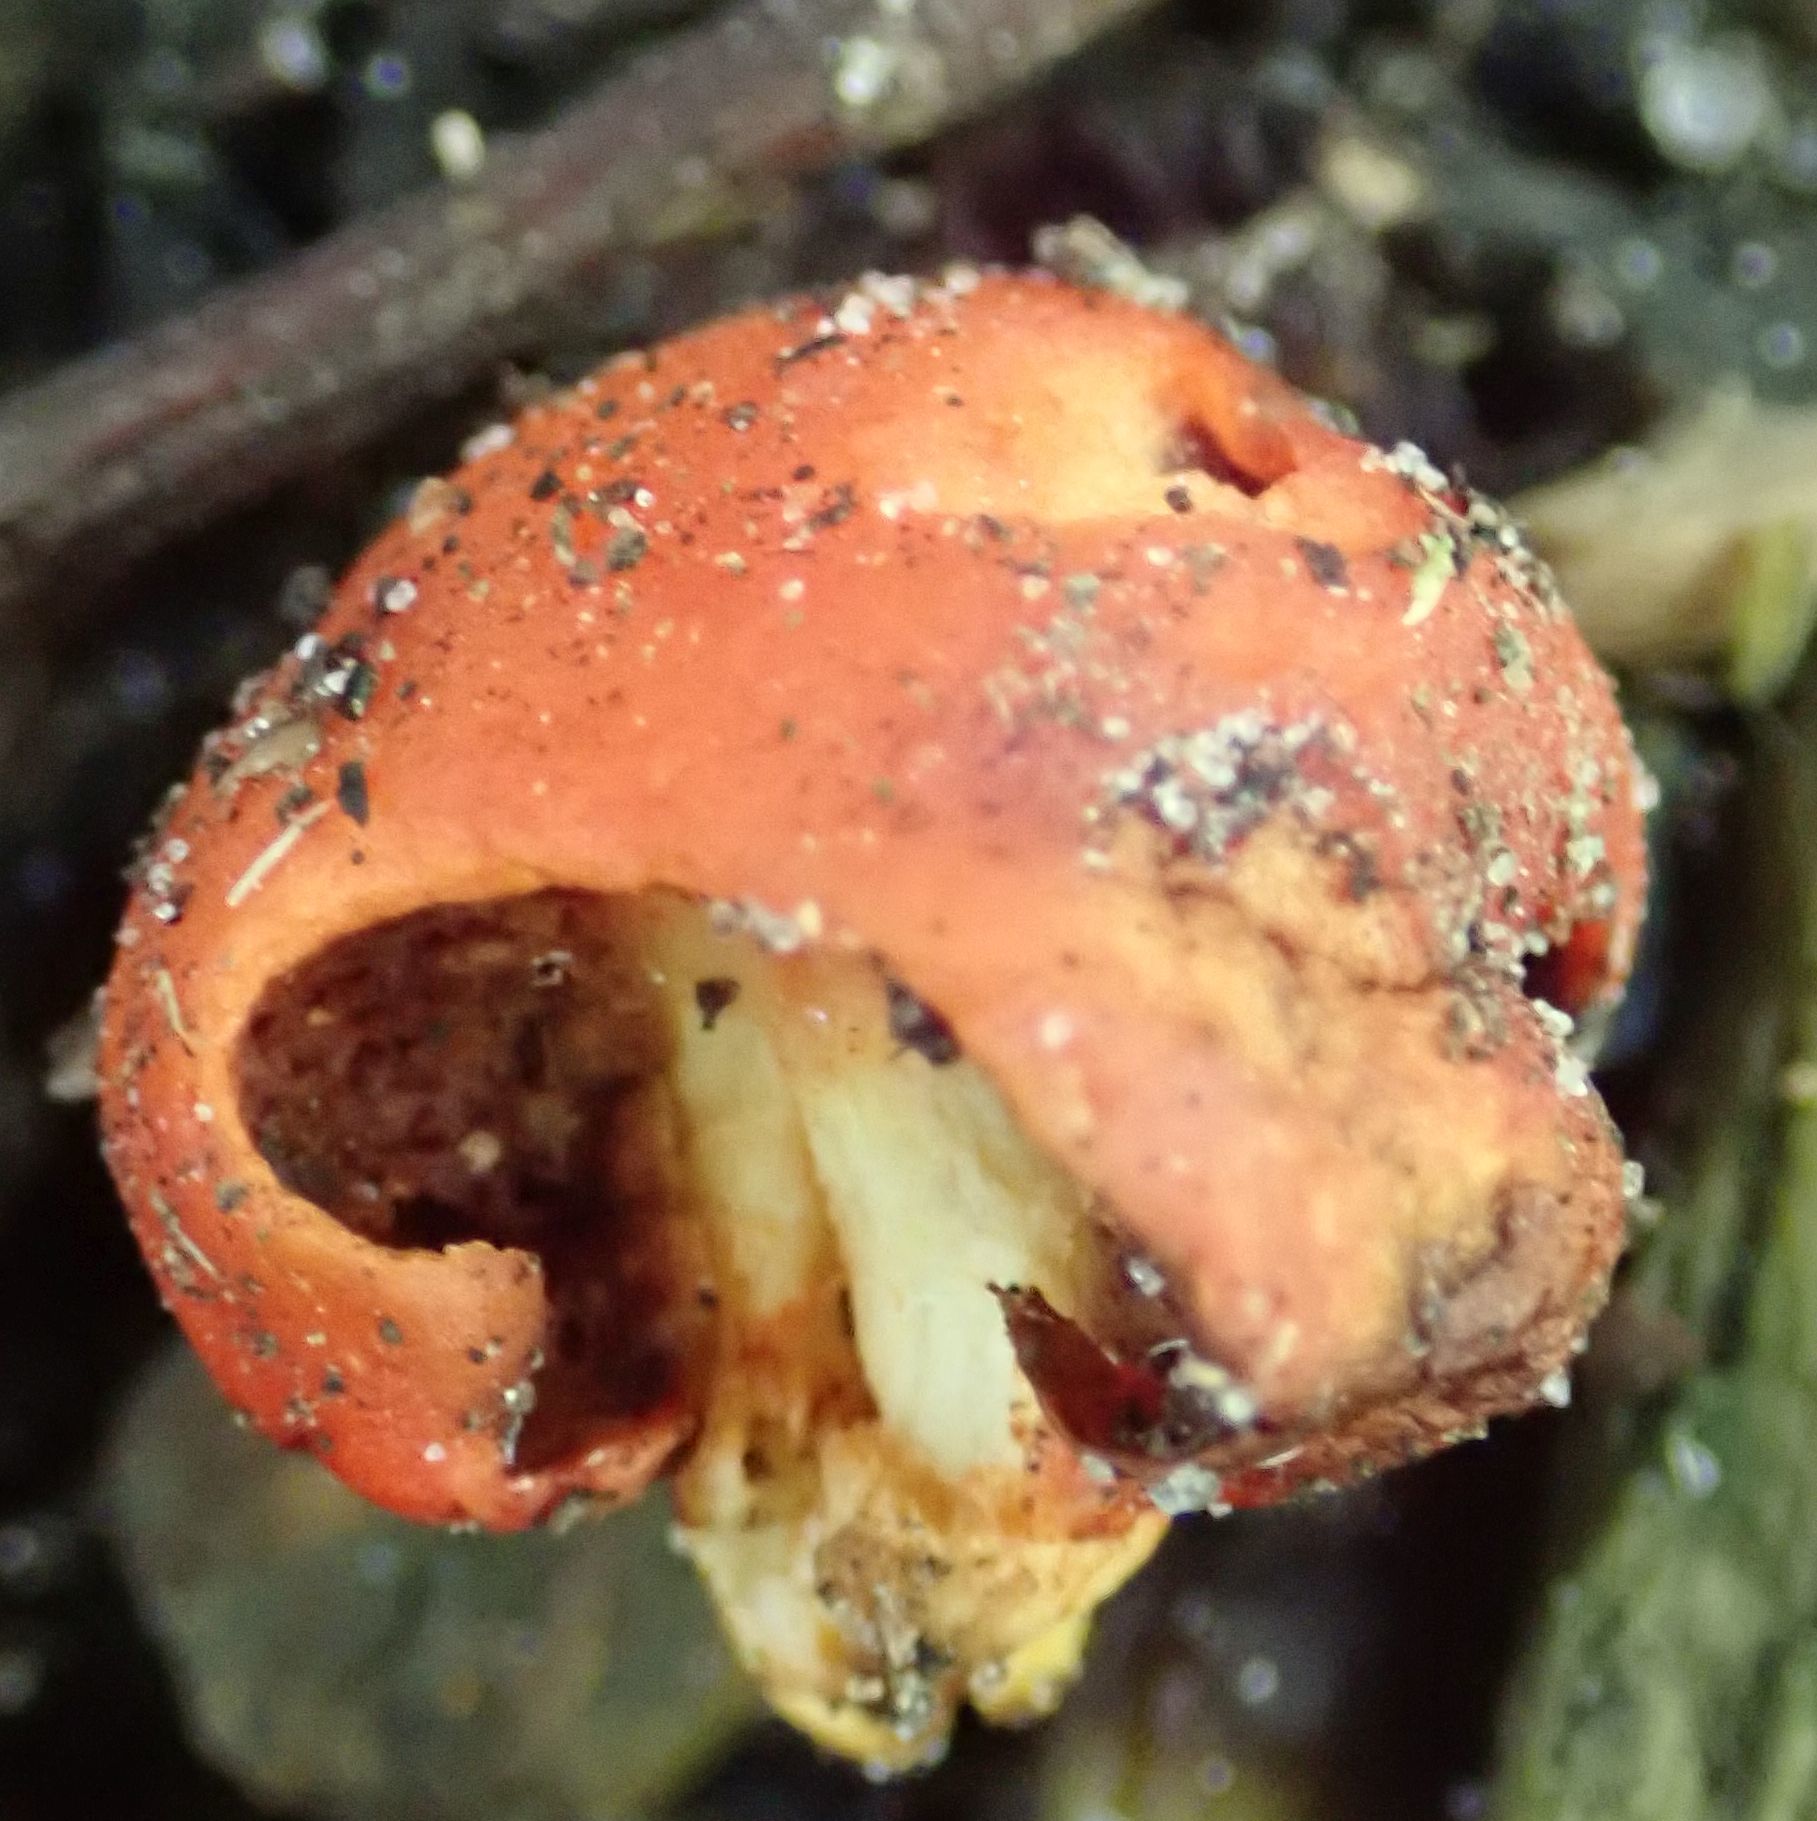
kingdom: Fungi
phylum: Basidiomycota
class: Agaricomycetes
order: Agaricales
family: Strophariaceae
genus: Leratiomyces
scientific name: Leratiomyces erythrocephalus
